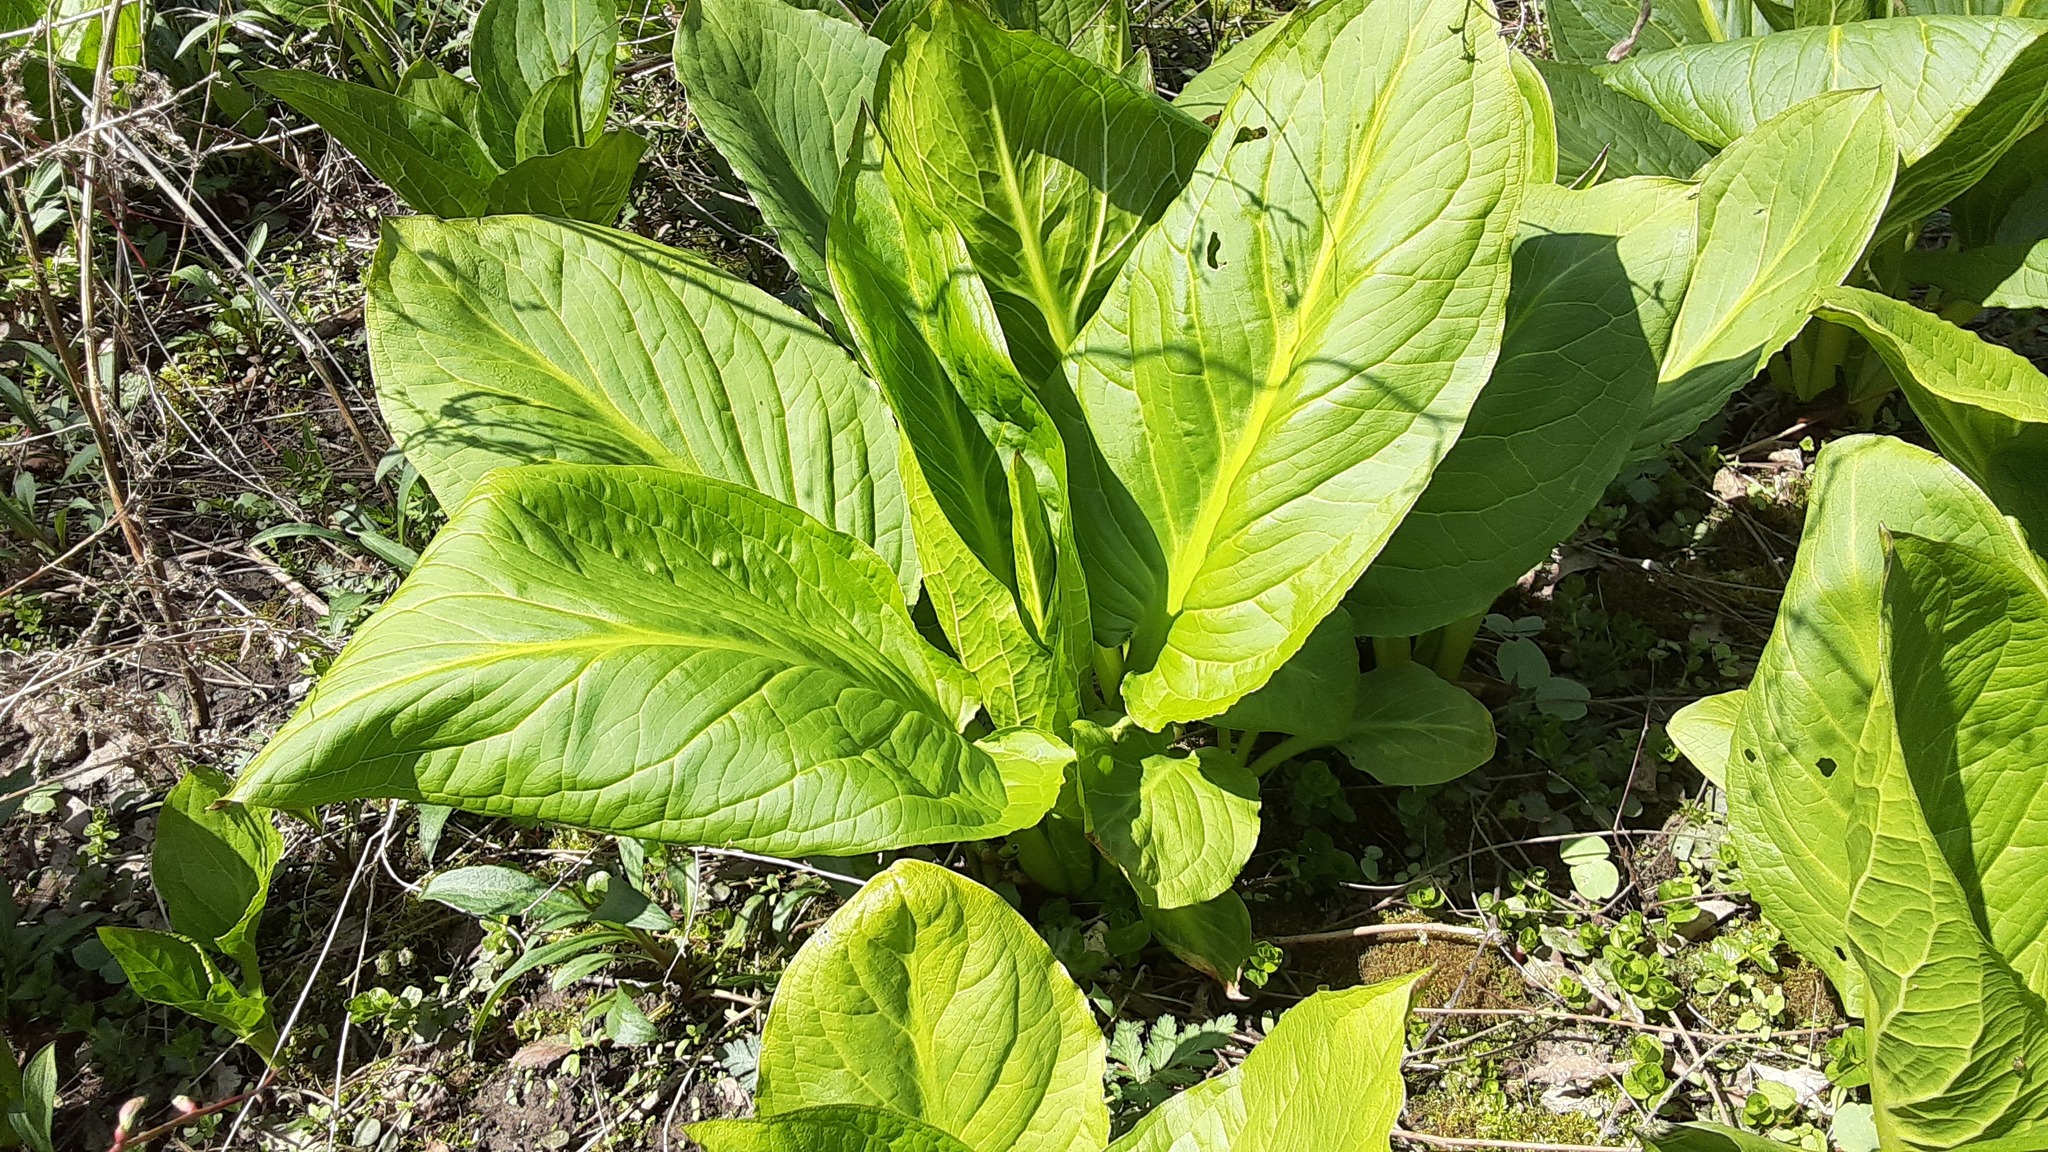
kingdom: Plantae
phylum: Tracheophyta
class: Liliopsida
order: Alismatales
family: Araceae
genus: Symplocarpus
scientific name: Symplocarpus foetidus
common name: Eastern skunk cabbage
